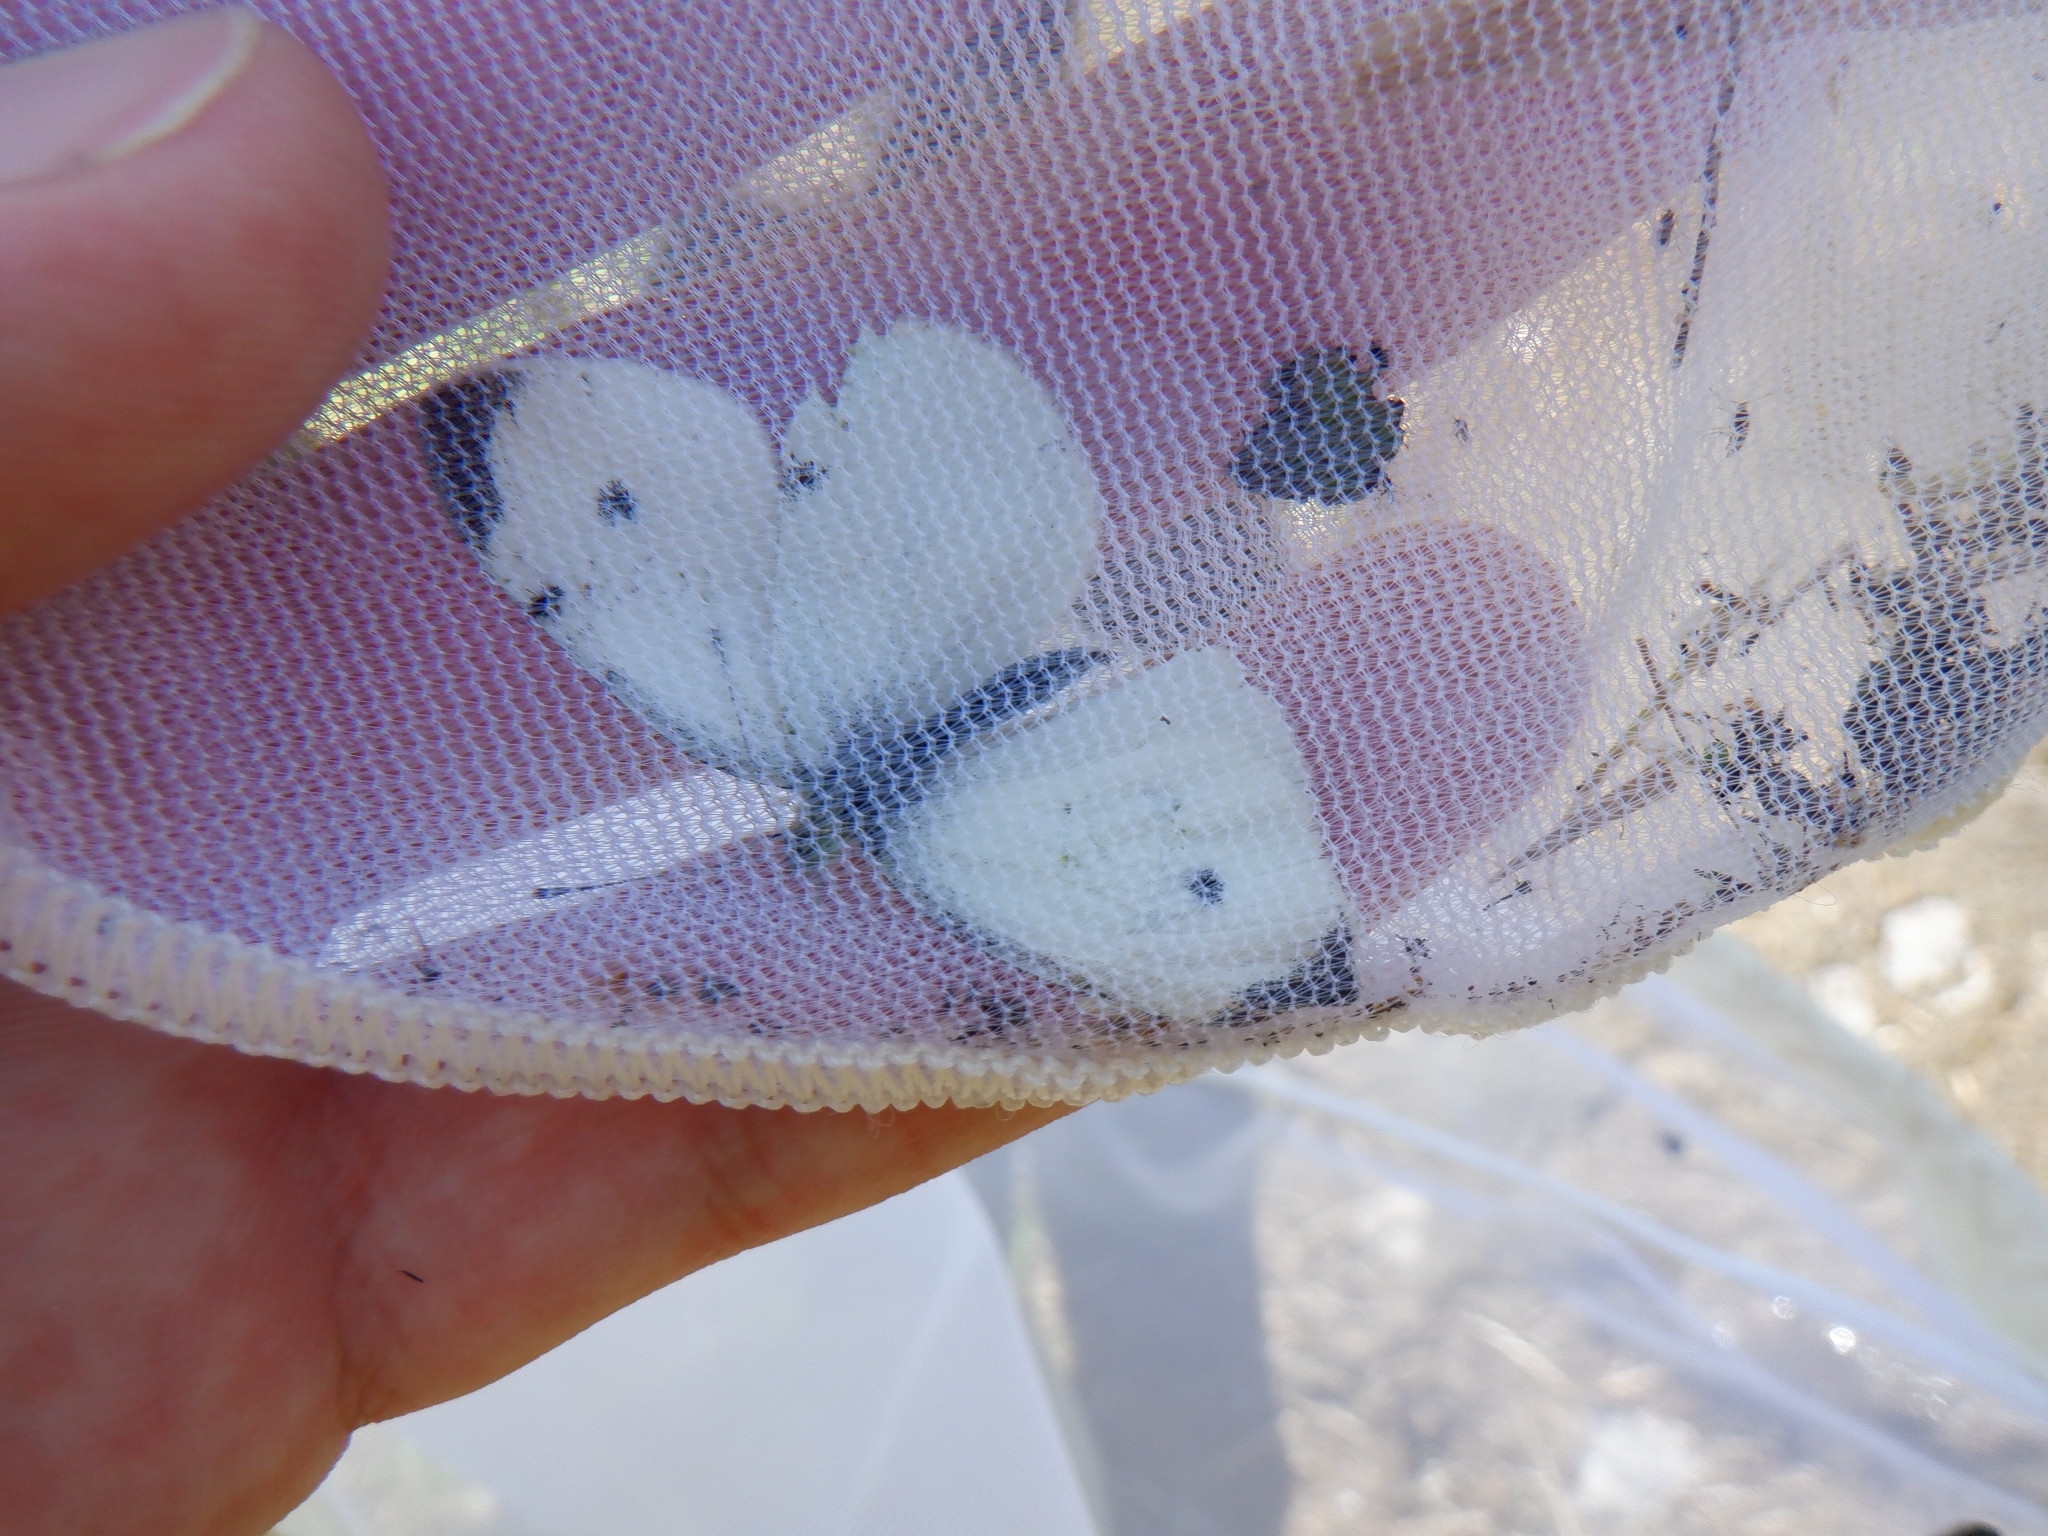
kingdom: Animalia
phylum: Arthropoda
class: Insecta
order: Lepidoptera
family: Pieridae
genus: Pieris
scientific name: Pieris rapae
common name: Small white
